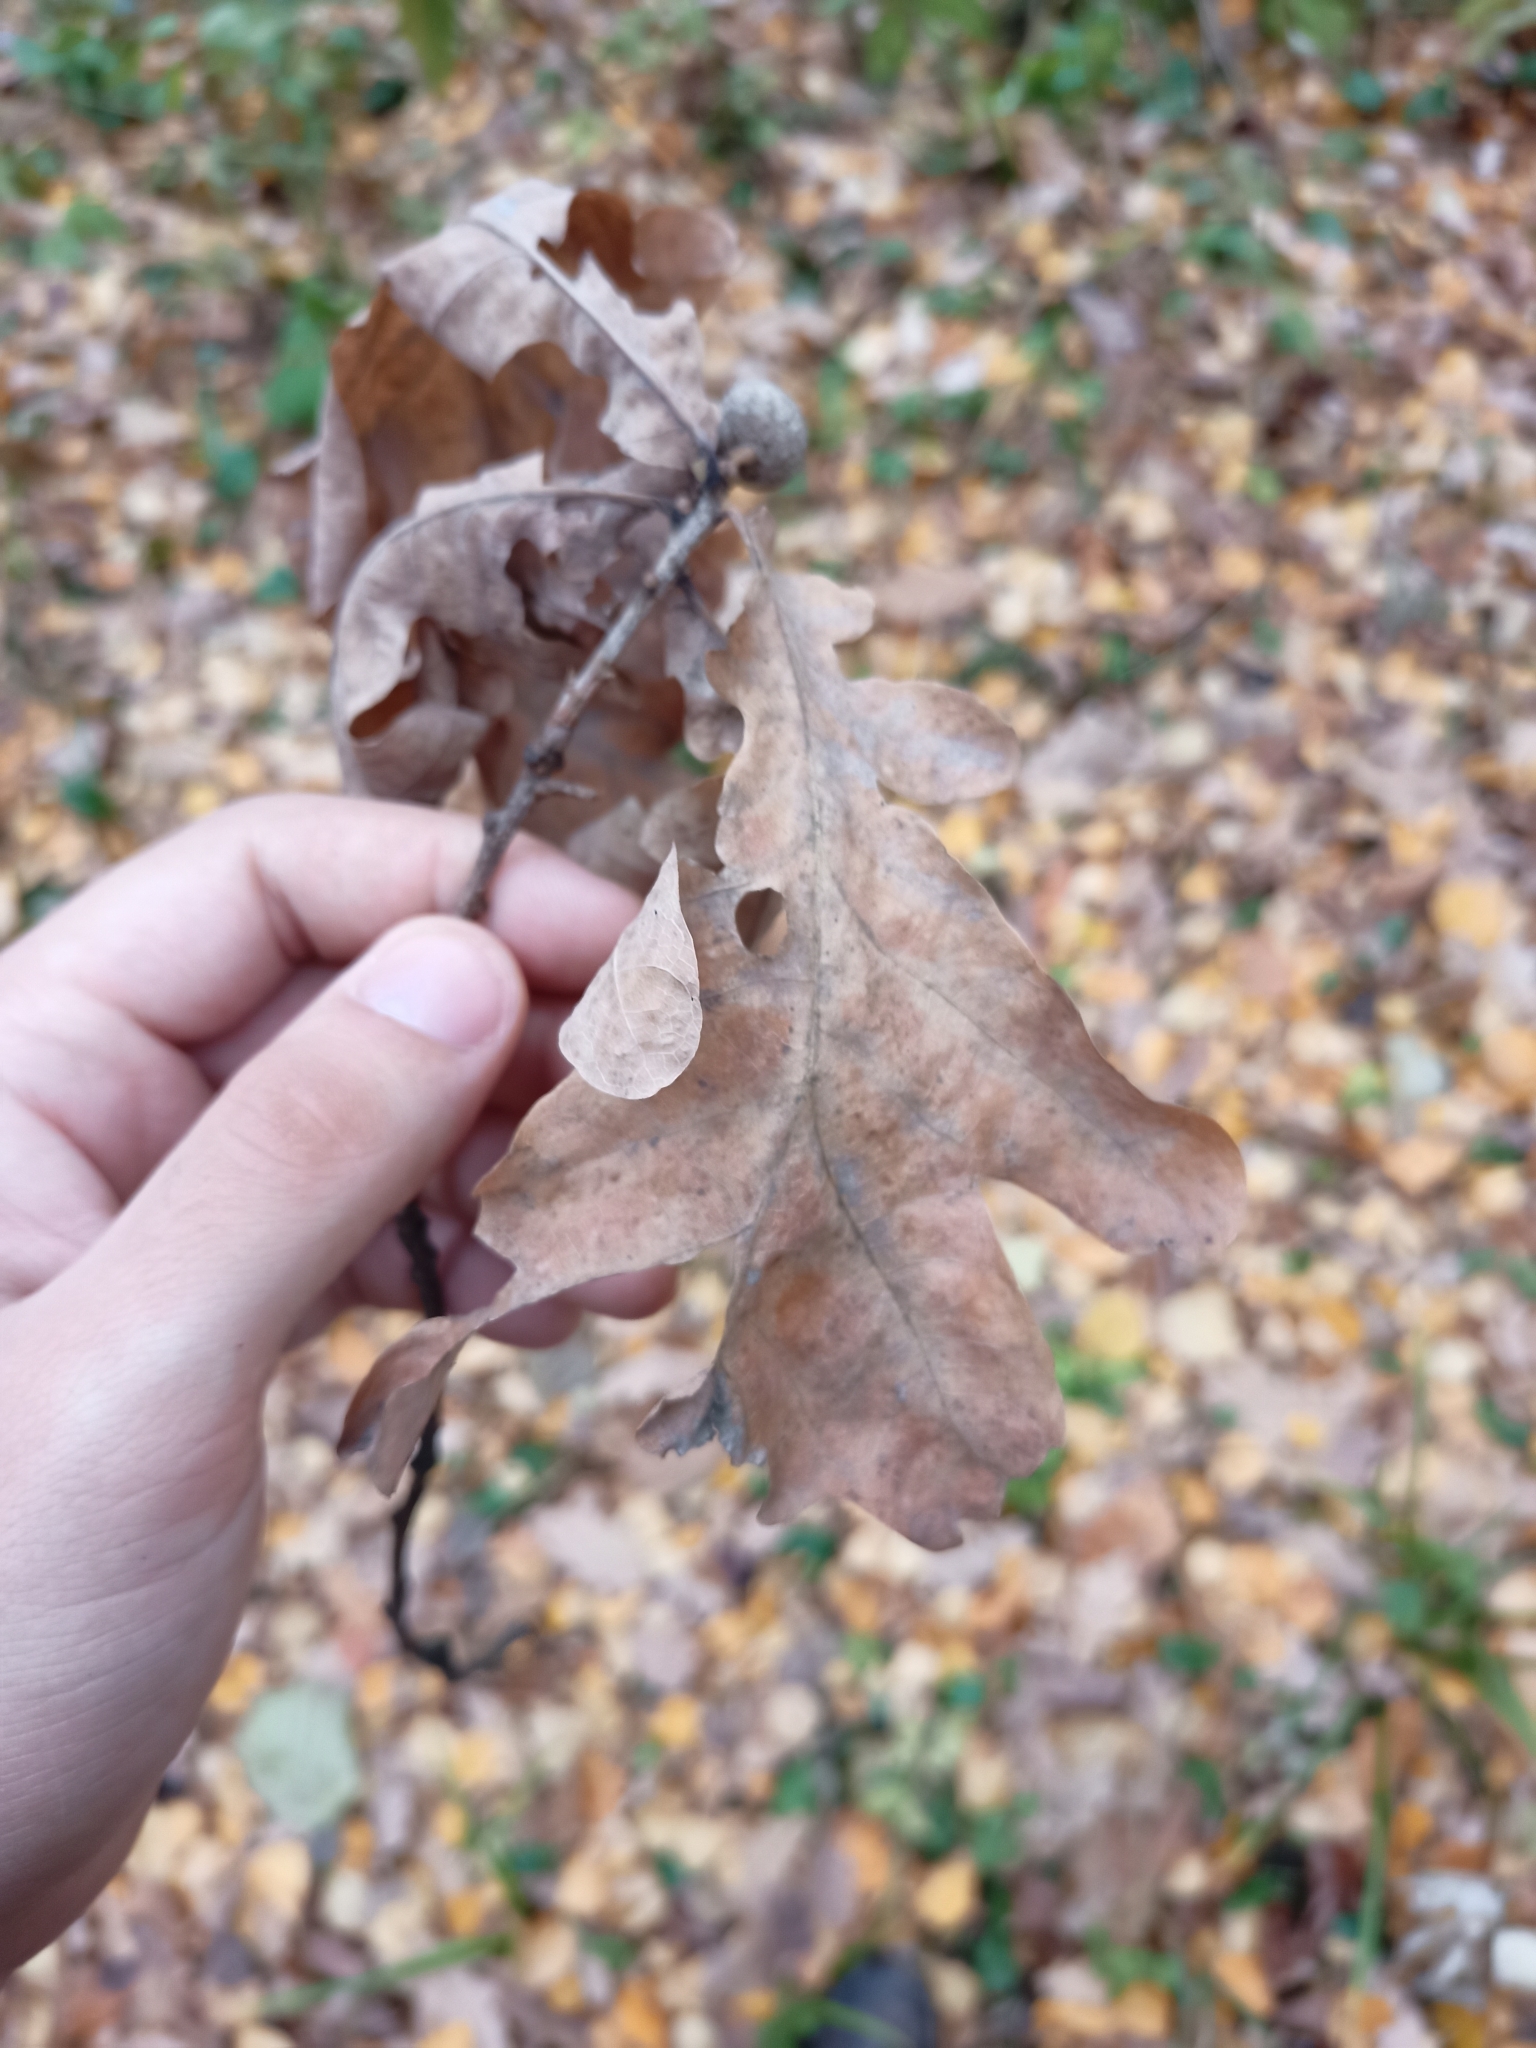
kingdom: Plantae
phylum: Tracheophyta
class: Magnoliopsida
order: Fagales
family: Fagaceae
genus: Quercus
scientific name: Quercus robur
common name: Pedunculate oak
